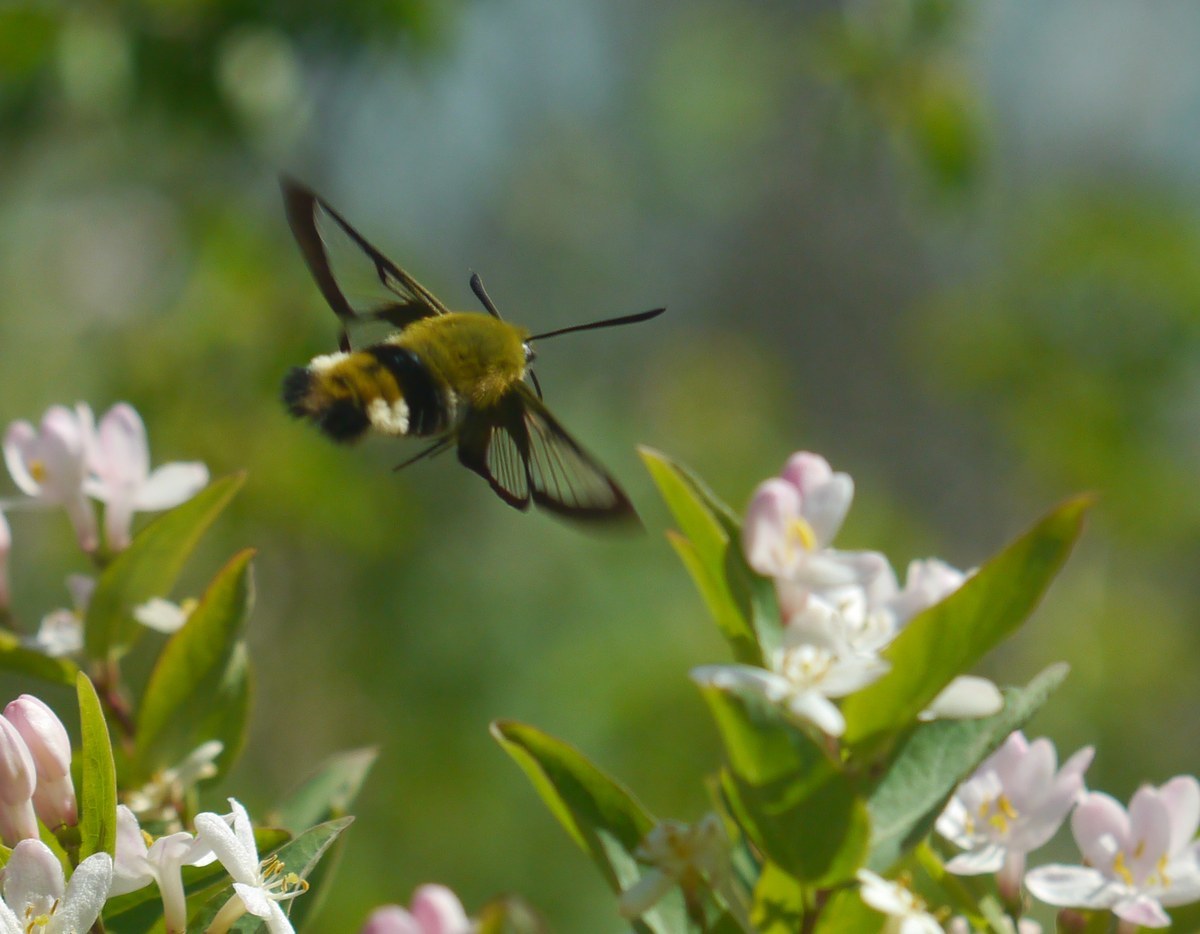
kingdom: Animalia
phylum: Arthropoda
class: Insecta
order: Lepidoptera
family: Sphingidae
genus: Hemaris
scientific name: Hemaris fuciformis
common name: Broad-bordered bee hawk-moth
